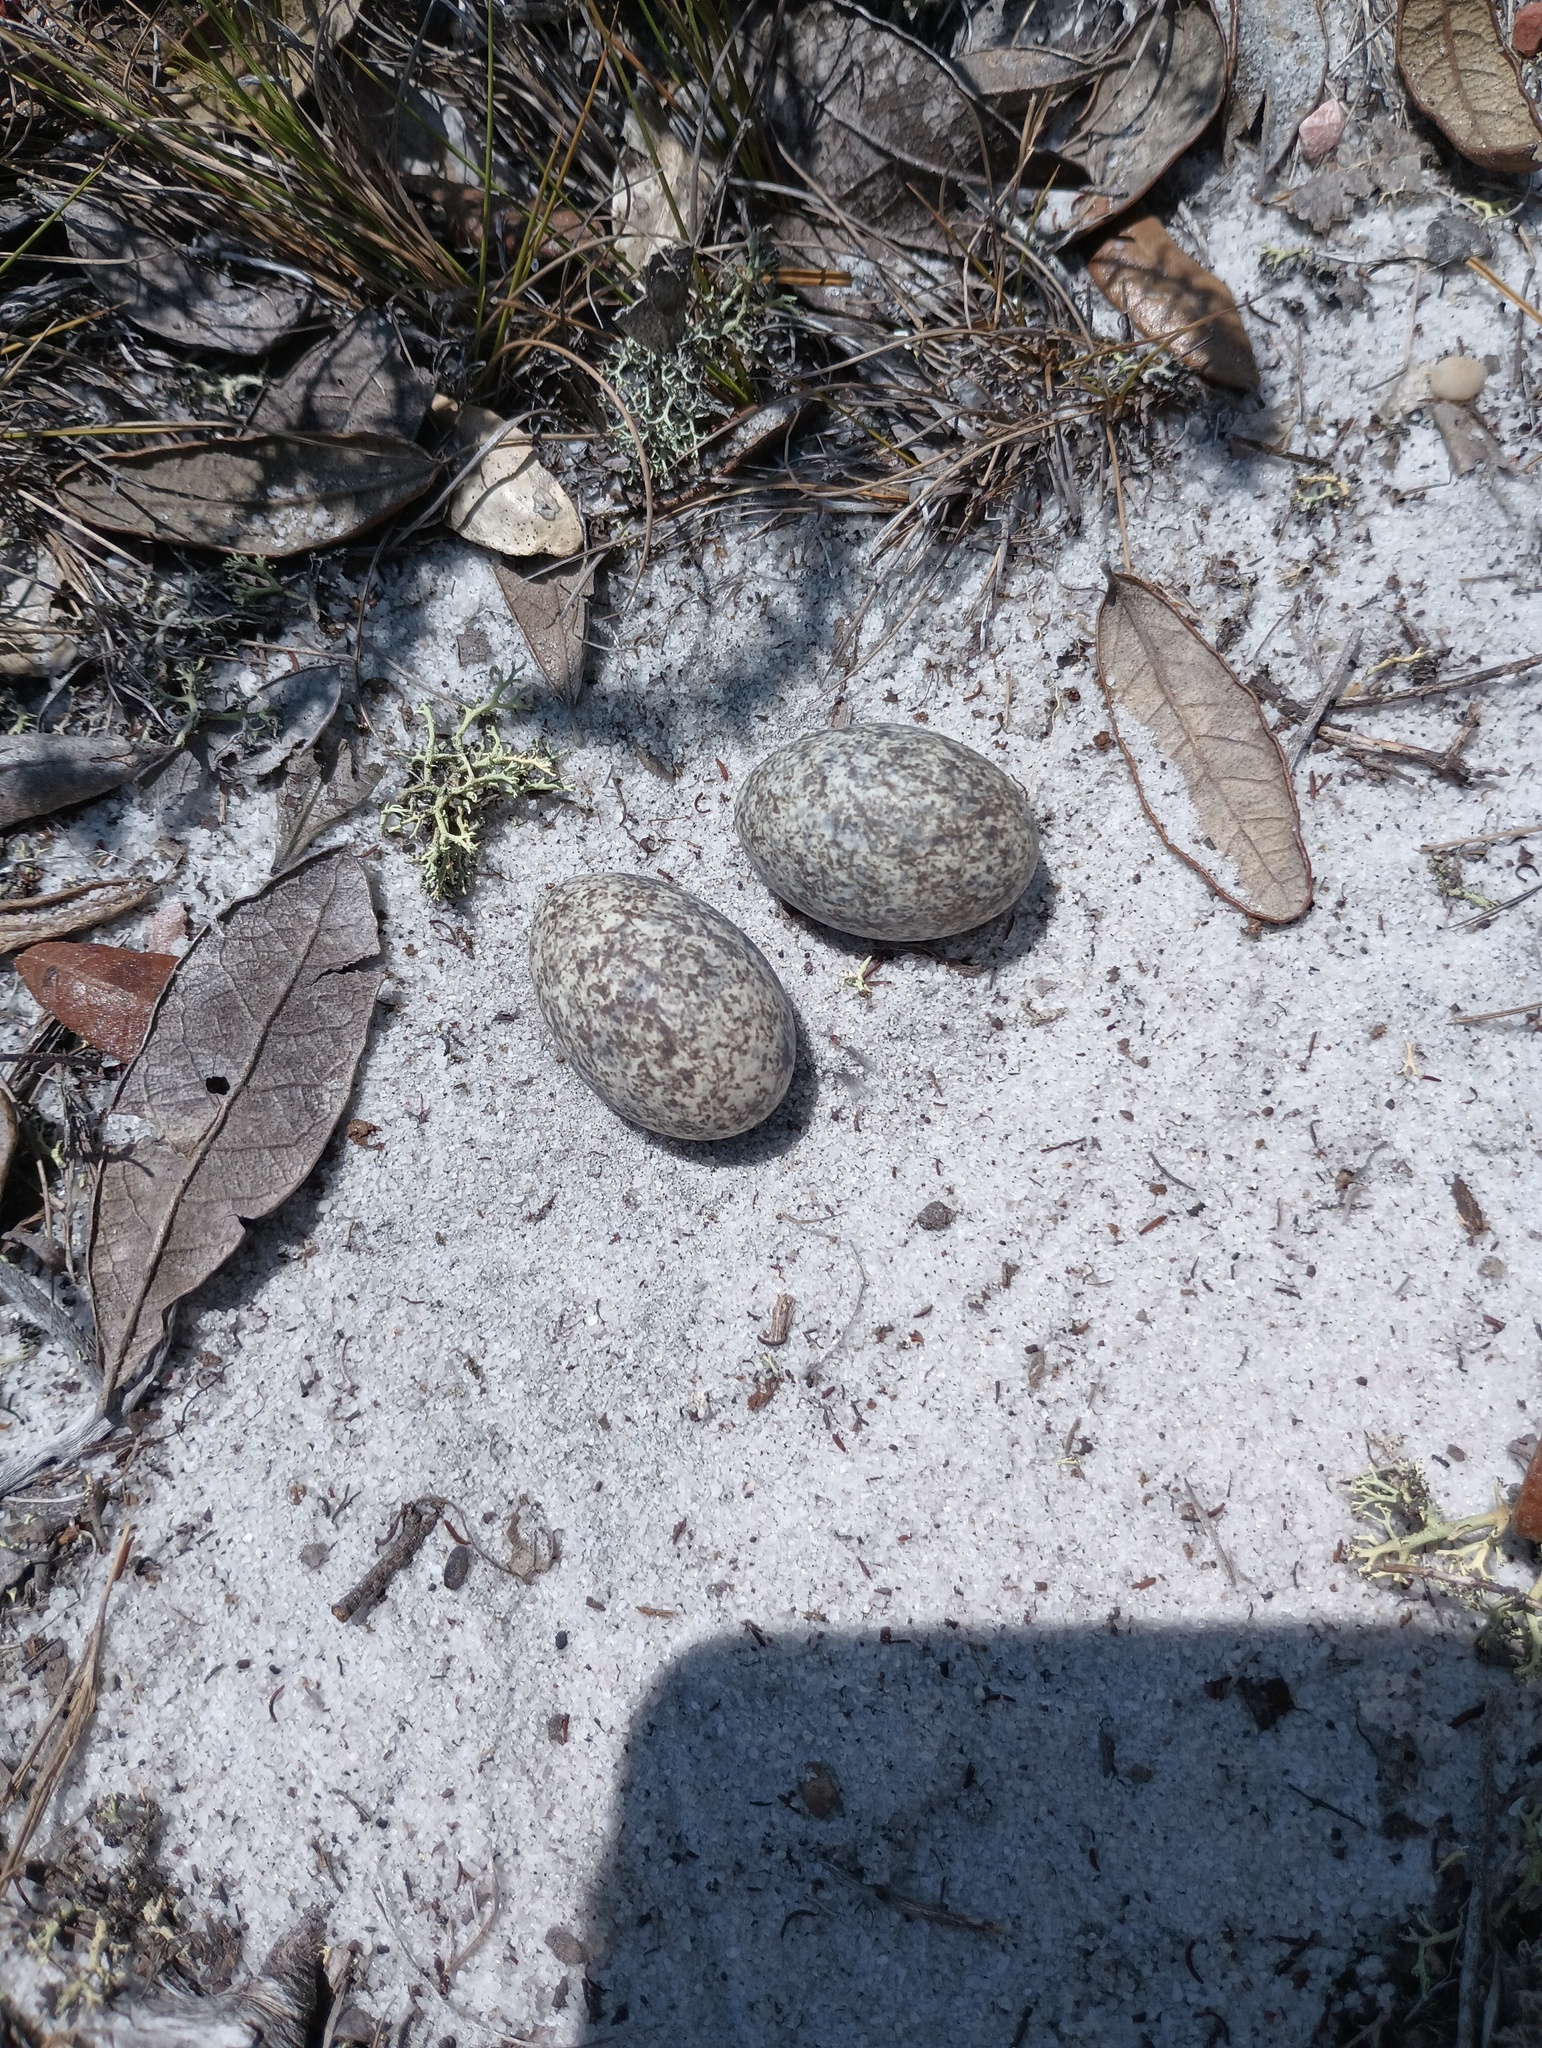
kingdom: Animalia
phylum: Chordata
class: Aves
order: Caprimulgiformes
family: Caprimulgidae
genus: Chordeiles
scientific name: Chordeiles minor
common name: Common nighthawk
